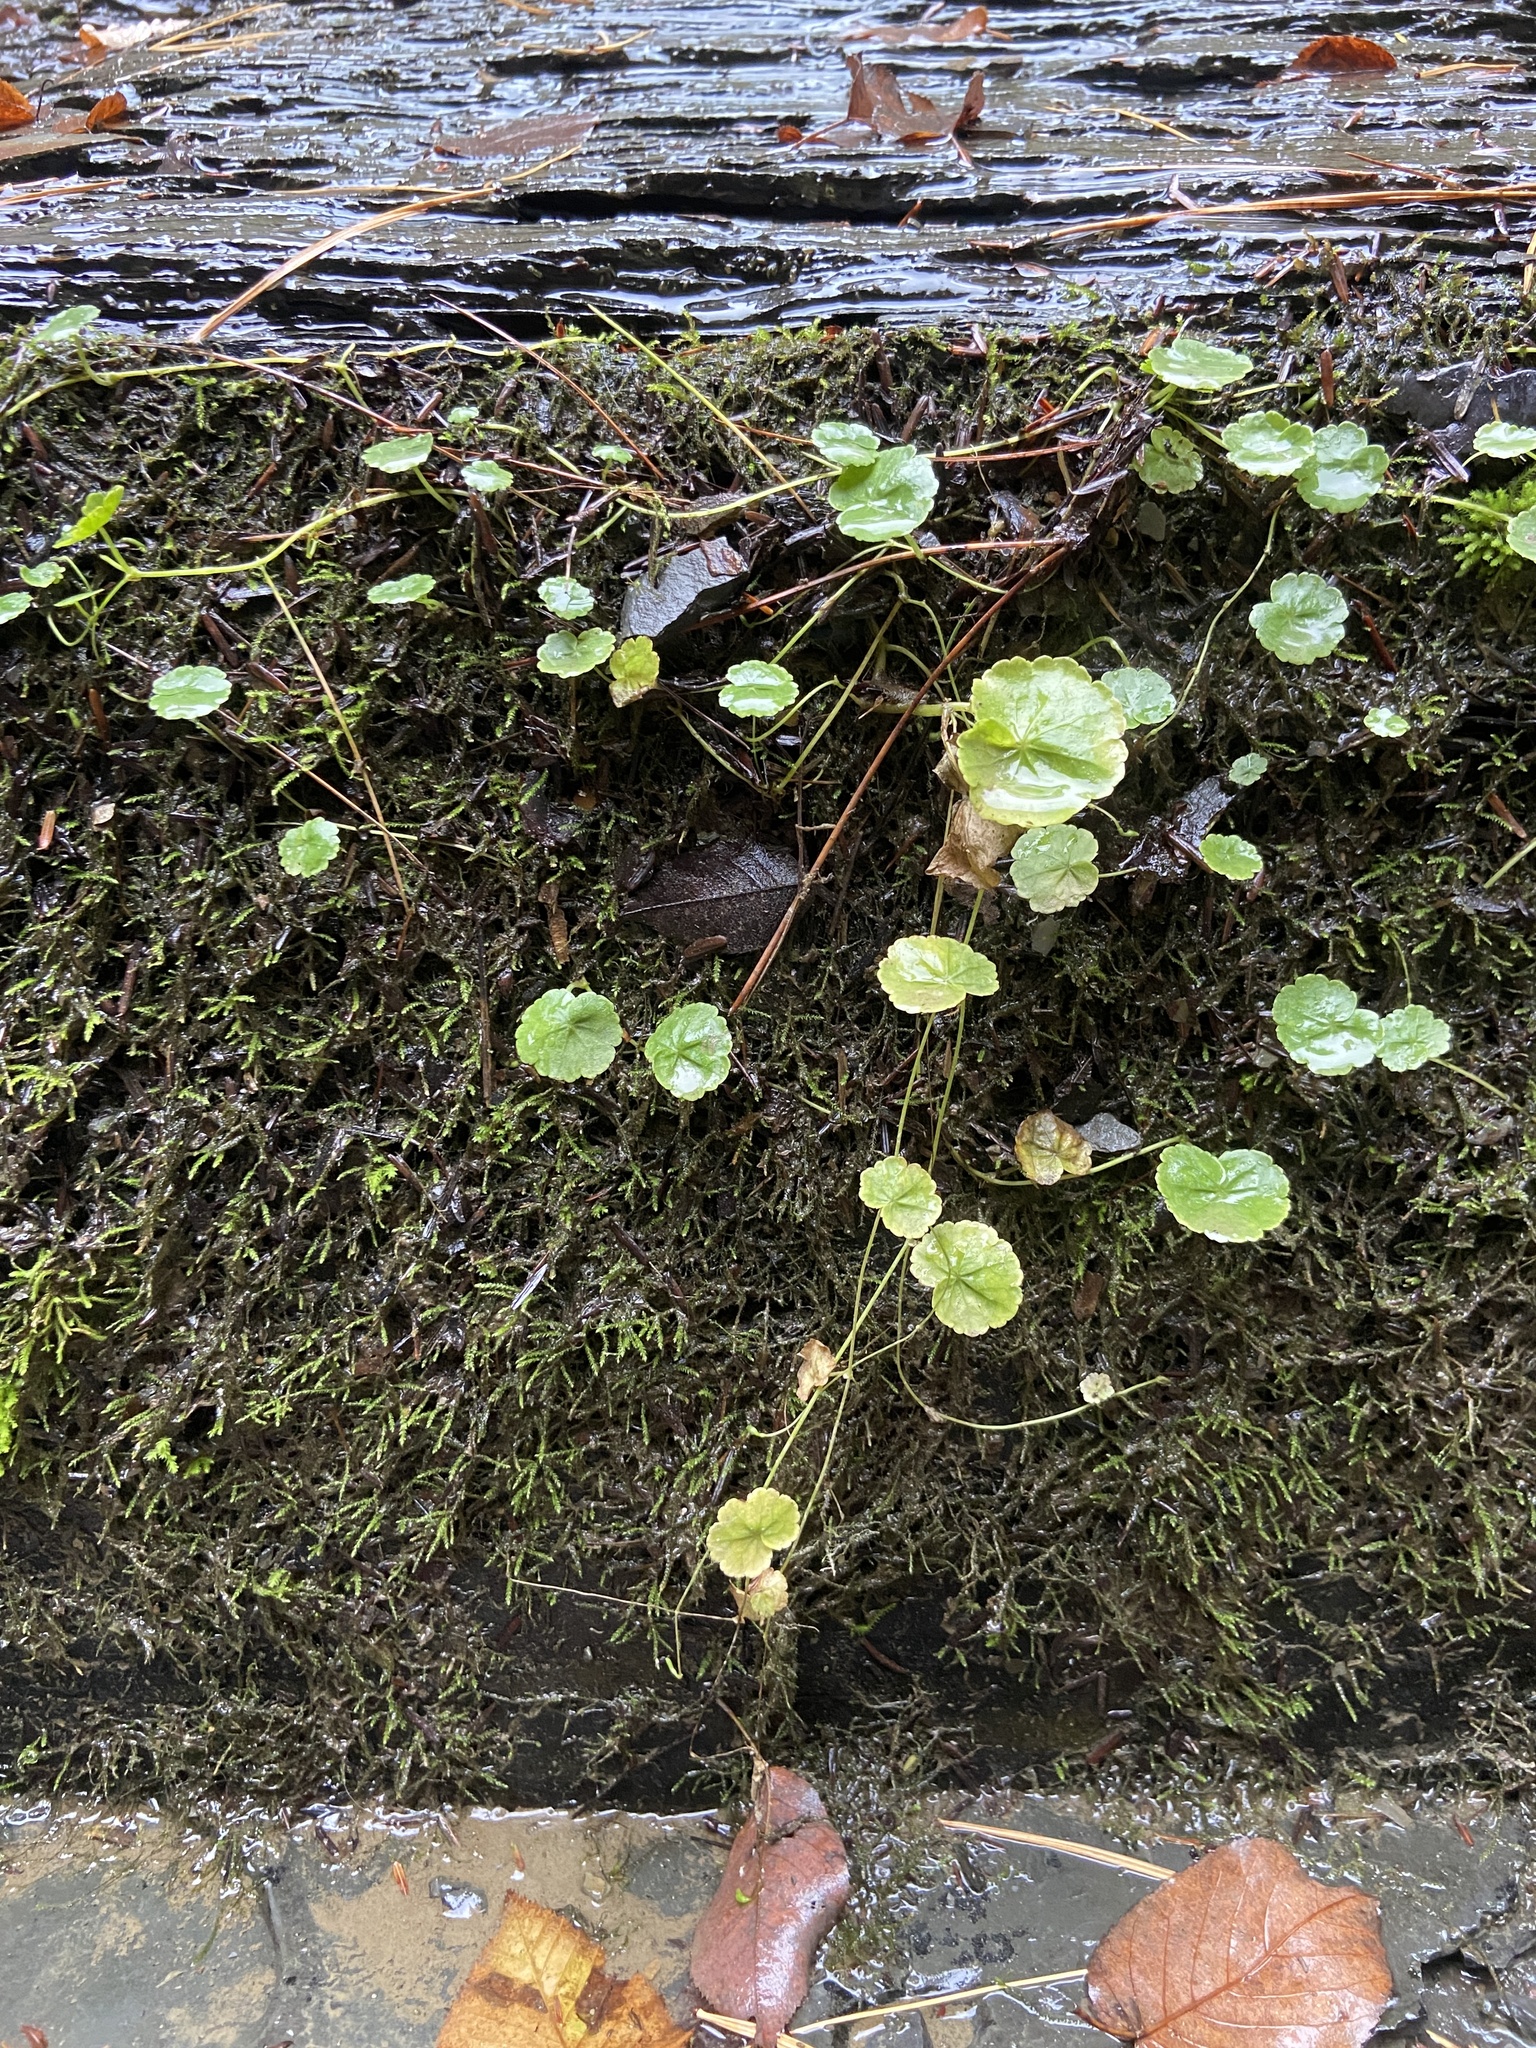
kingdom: Plantae
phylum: Tracheophyta
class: Magnoliopsida
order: Apiales
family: Araliaceae
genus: Hydrocotyle
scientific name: Hydrocotyle americana
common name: American water-pennywort
